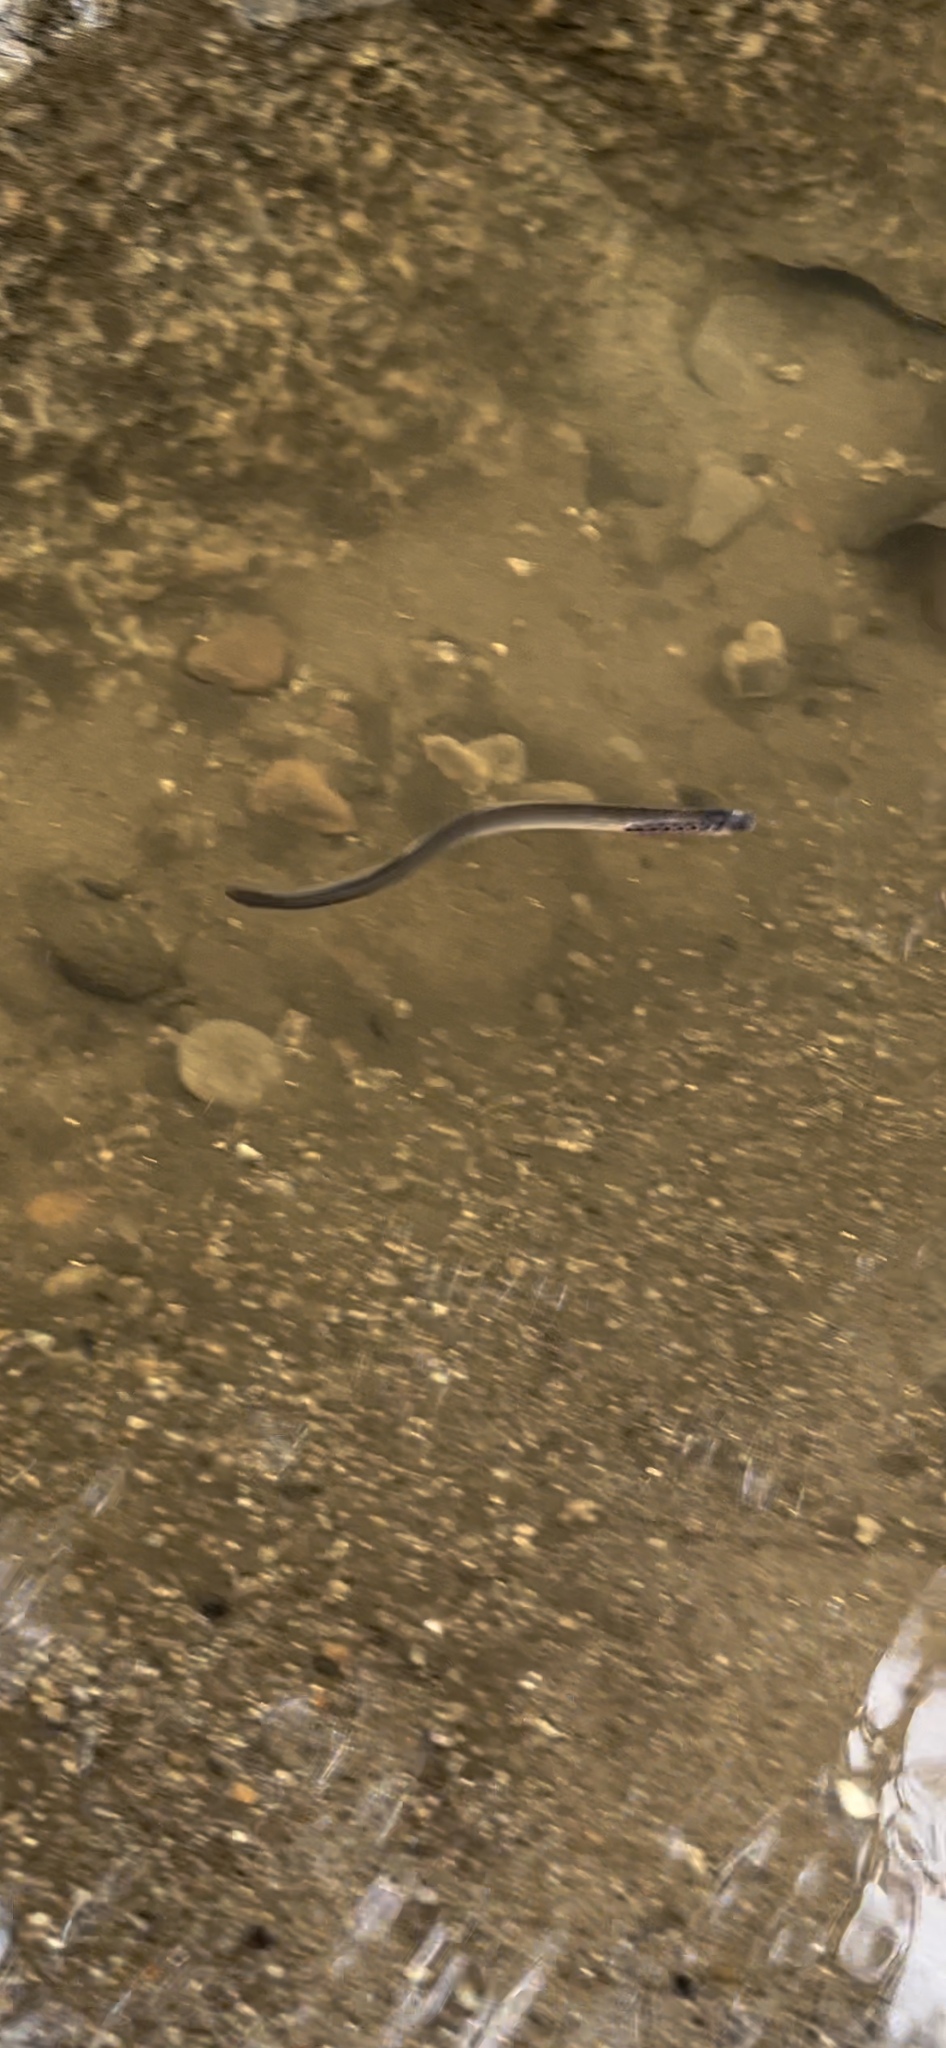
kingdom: Animalia
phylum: Chordata
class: Petromyzonti
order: Petromyzontiformes
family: Petromyzontidae
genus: Lampetra
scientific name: Lampetra richardsoni
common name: Western brook lamprey
